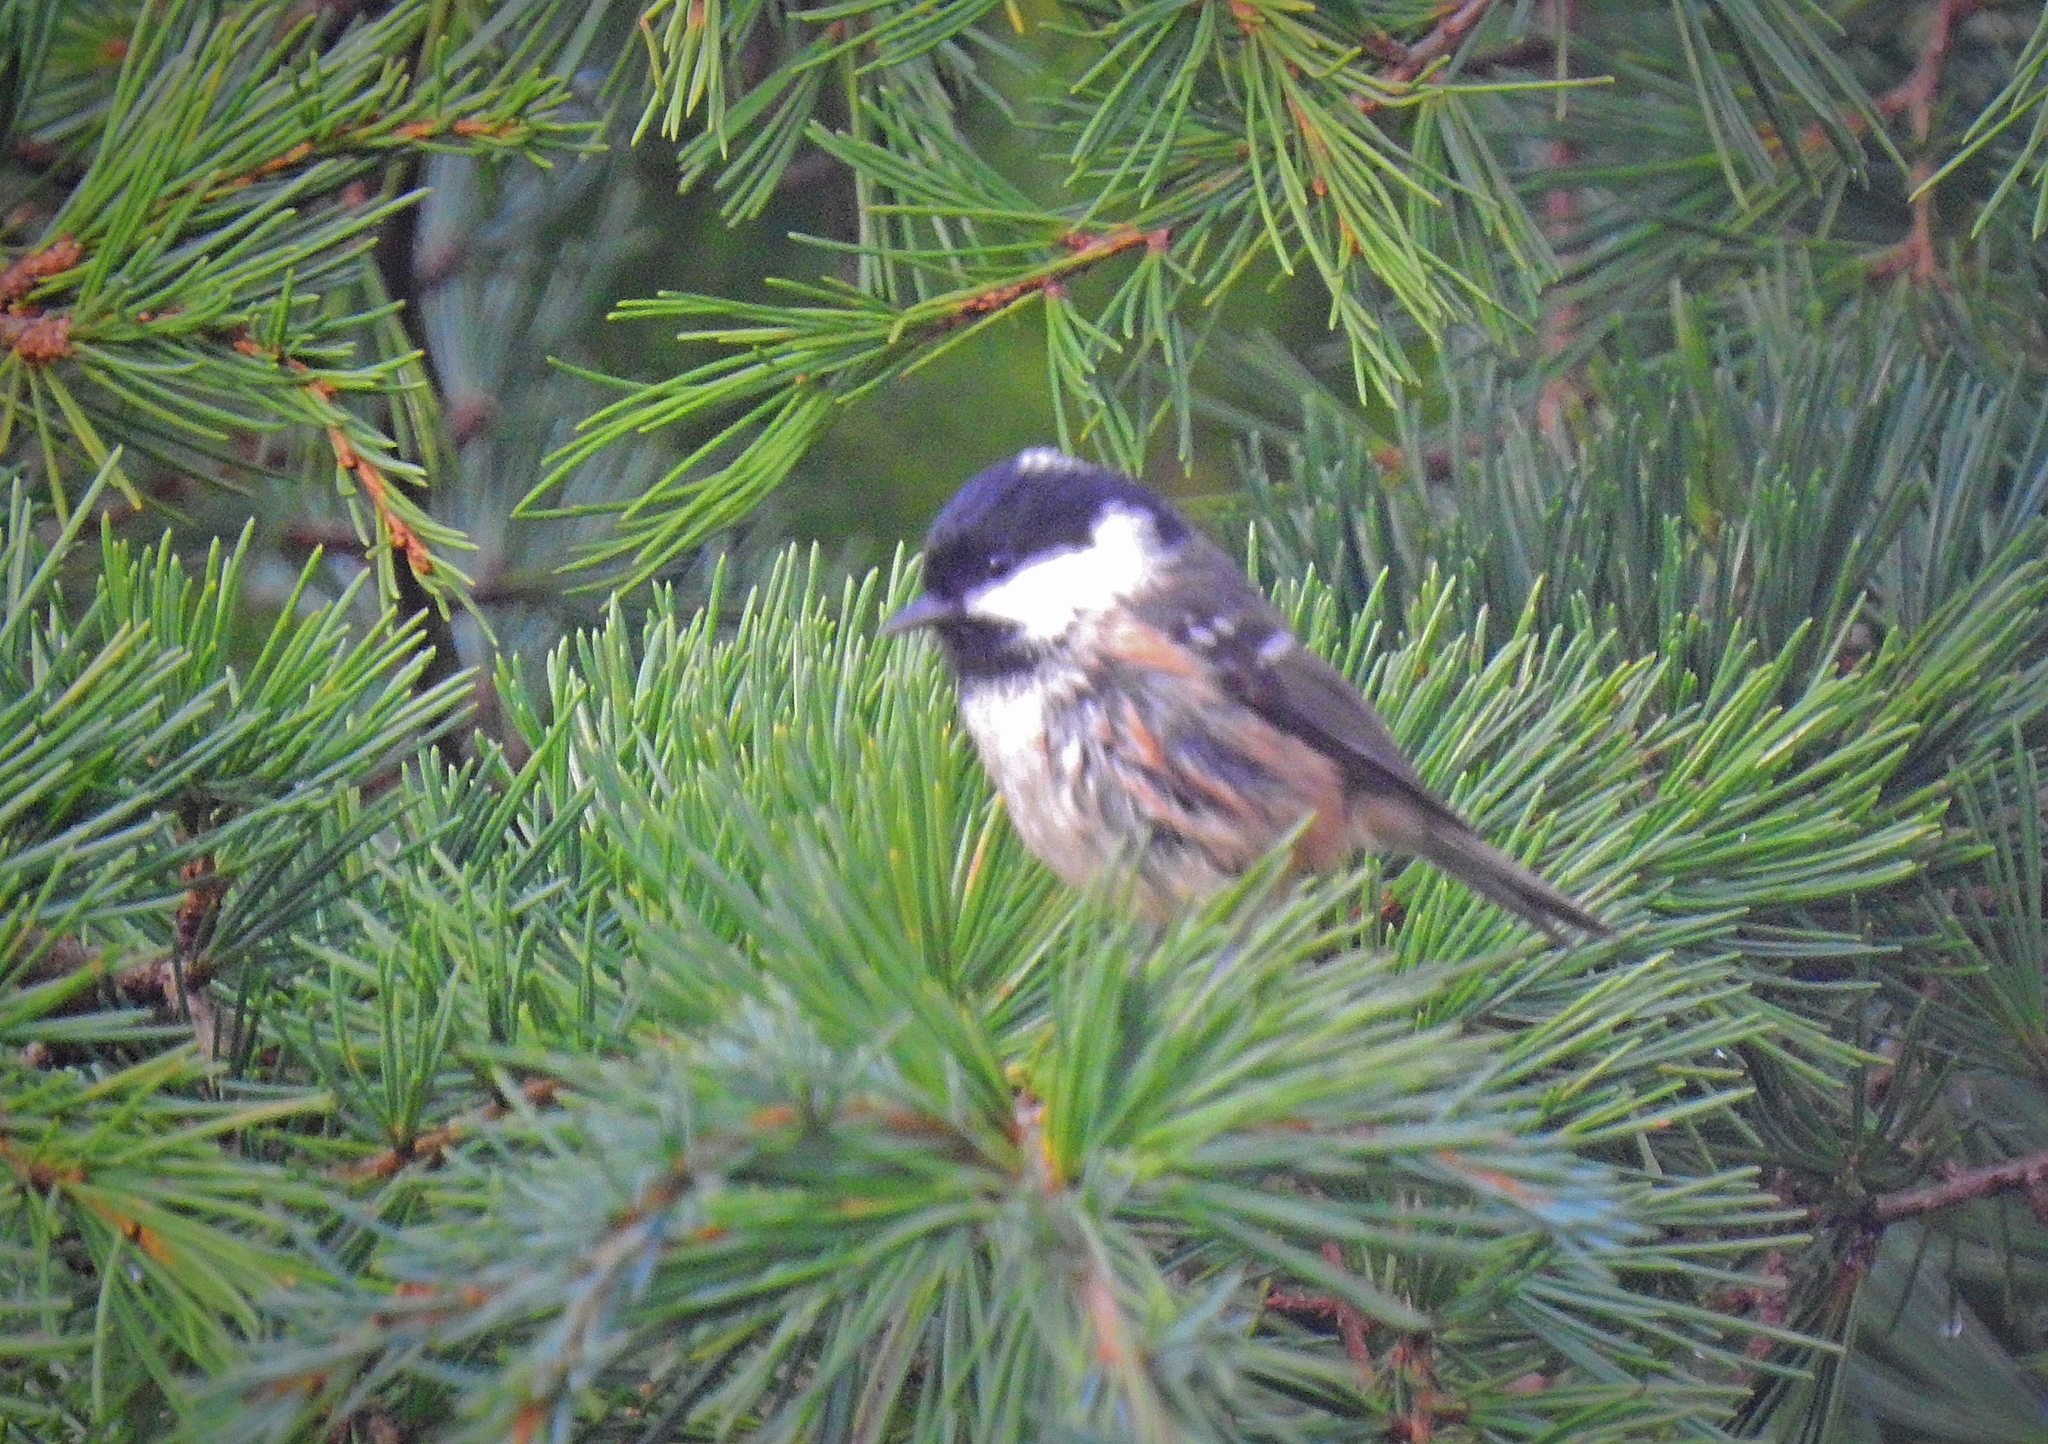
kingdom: Animalia
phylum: Chordata
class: Aves
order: Passeriformes
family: Paridae
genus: Periparus
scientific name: Periparus ater
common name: Coal tit
